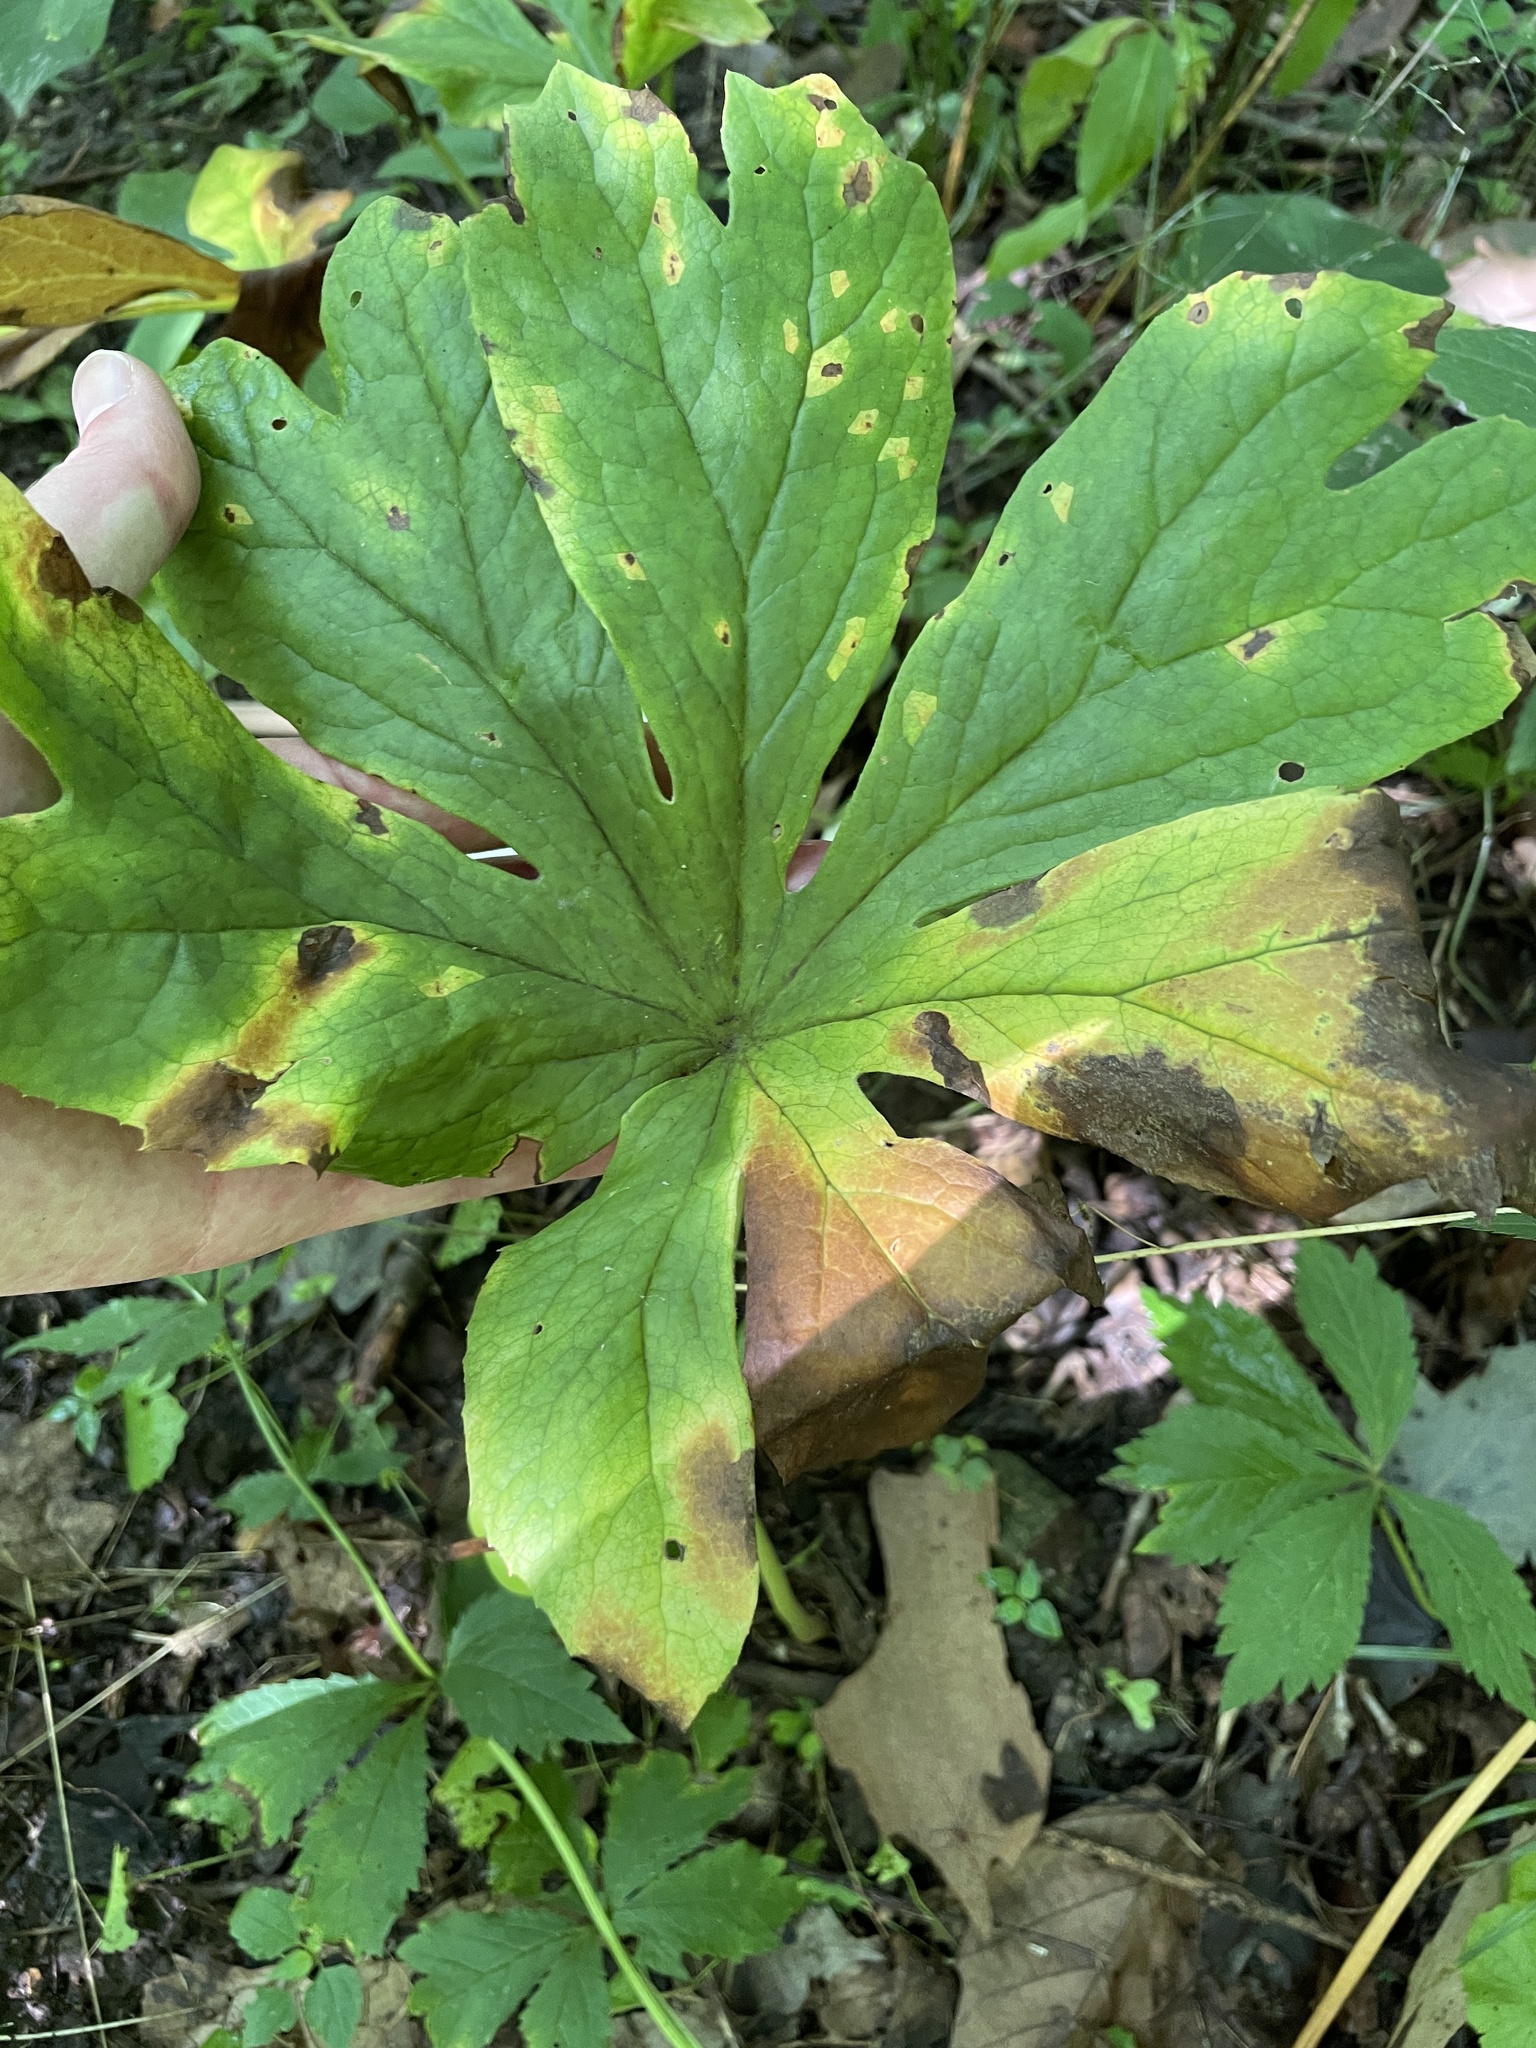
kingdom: Plantae
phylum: Tracheophyta
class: Magnoliopsida
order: Ranunculales
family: Berberidaceae
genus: Podophyllum
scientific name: Podophyllum peltatum
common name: Wild mandrake
